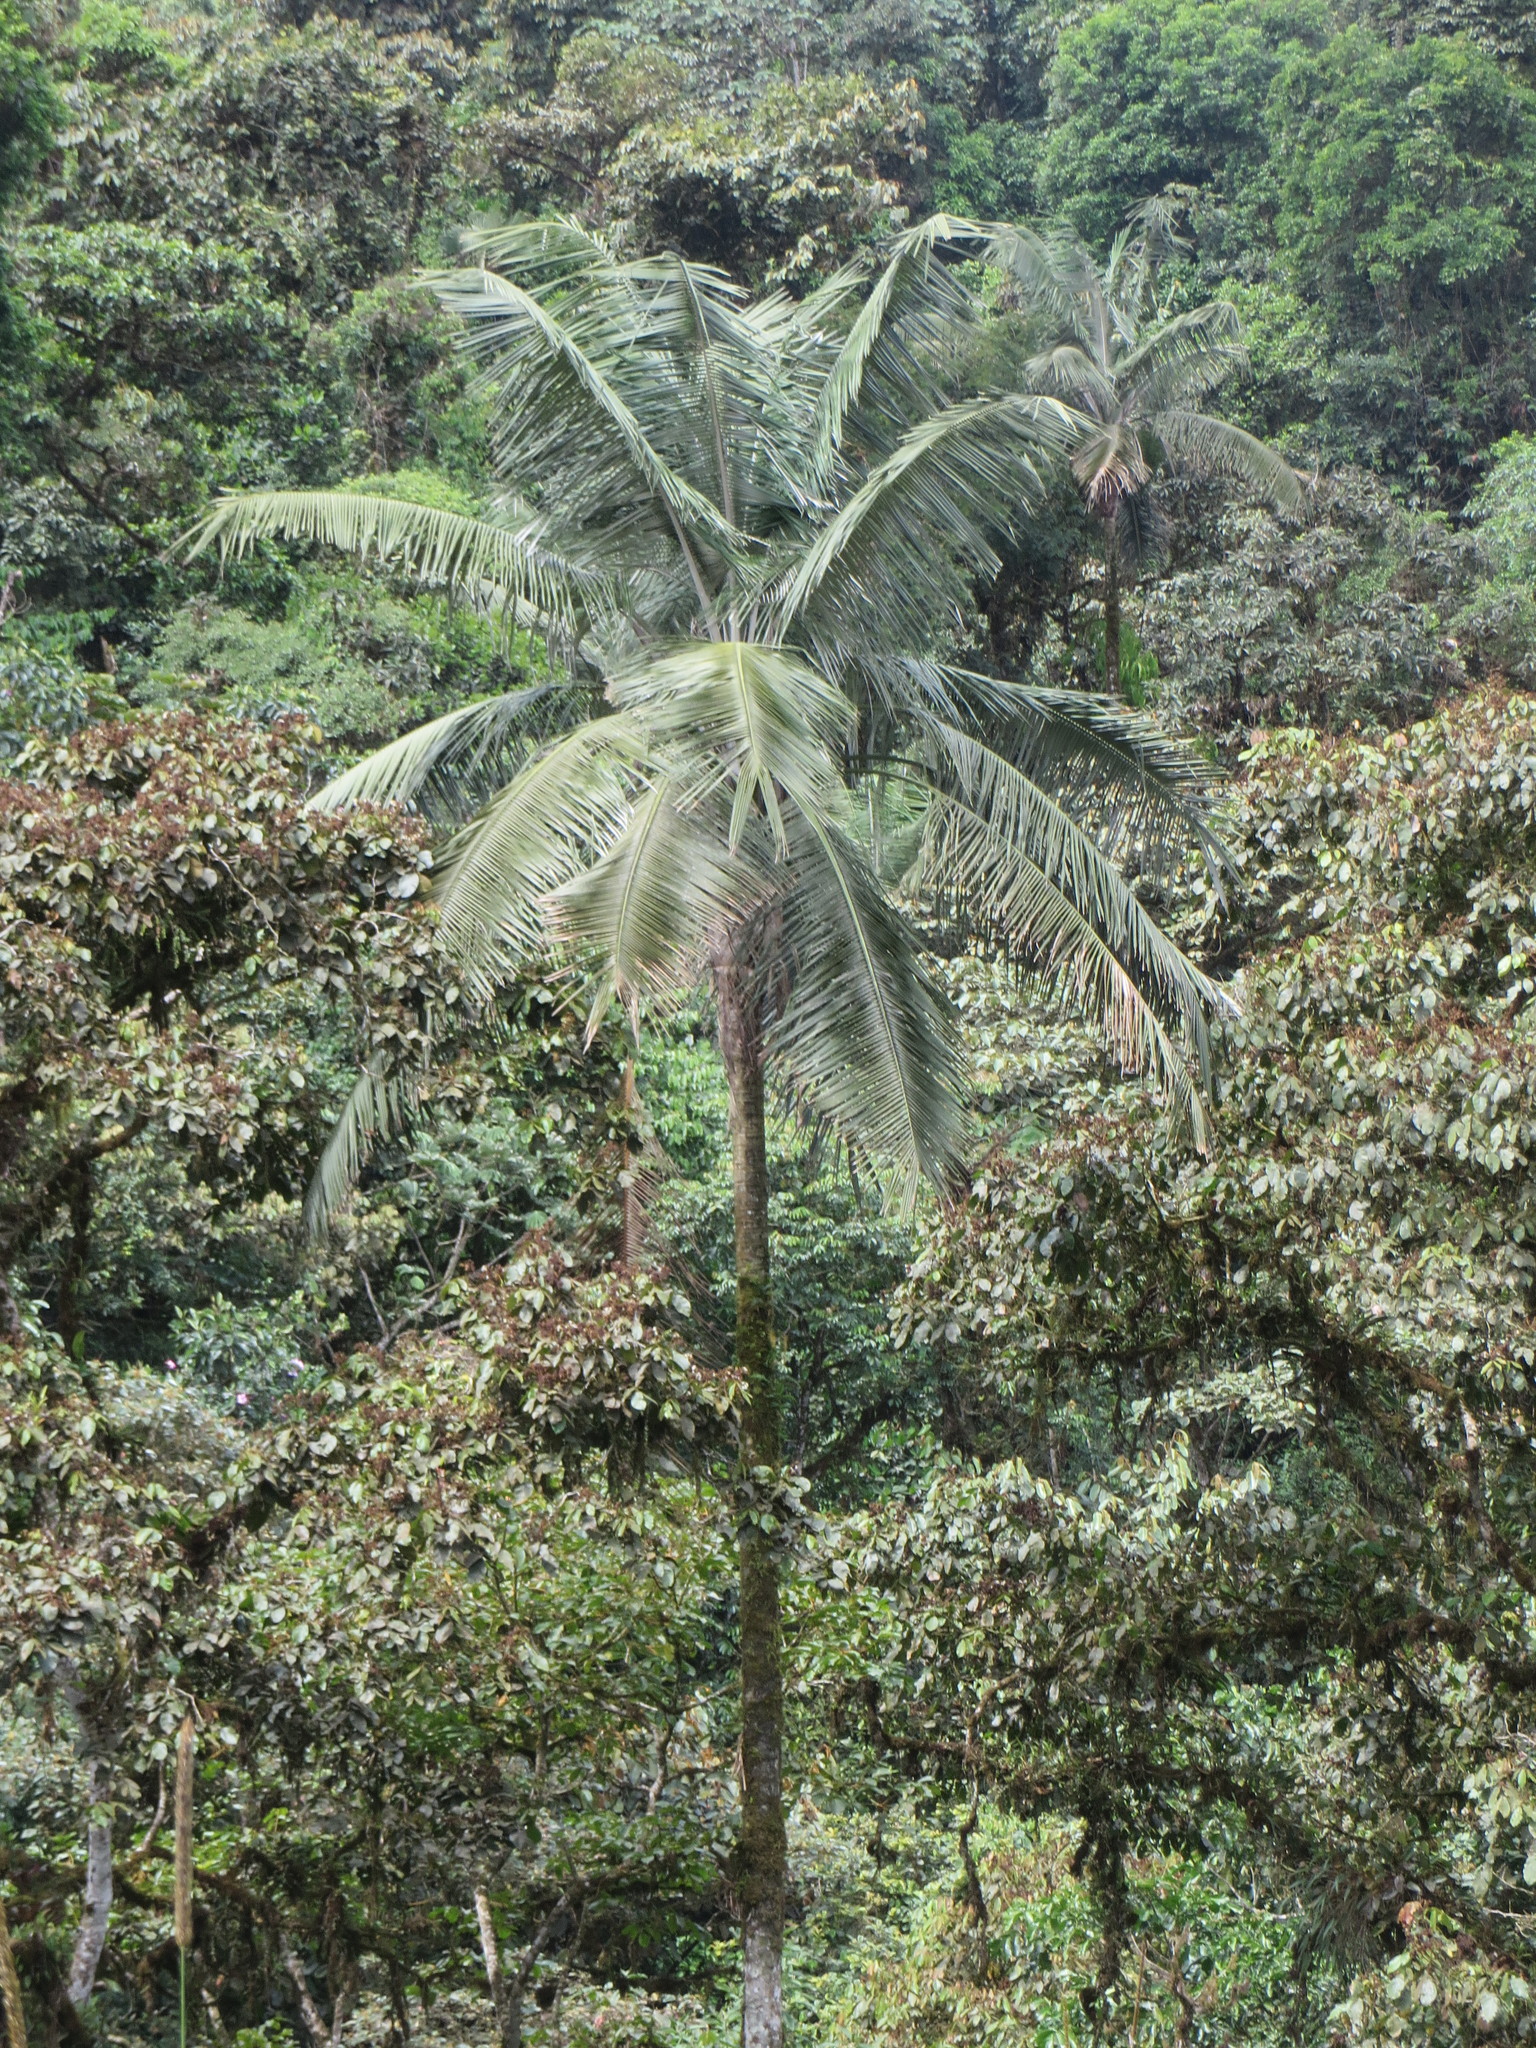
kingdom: Plantae
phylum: Tracheophyta
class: Liliopsida
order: Arecales
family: Arecaceae
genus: Ceroxylon
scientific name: Ceroxylon echinulatum
